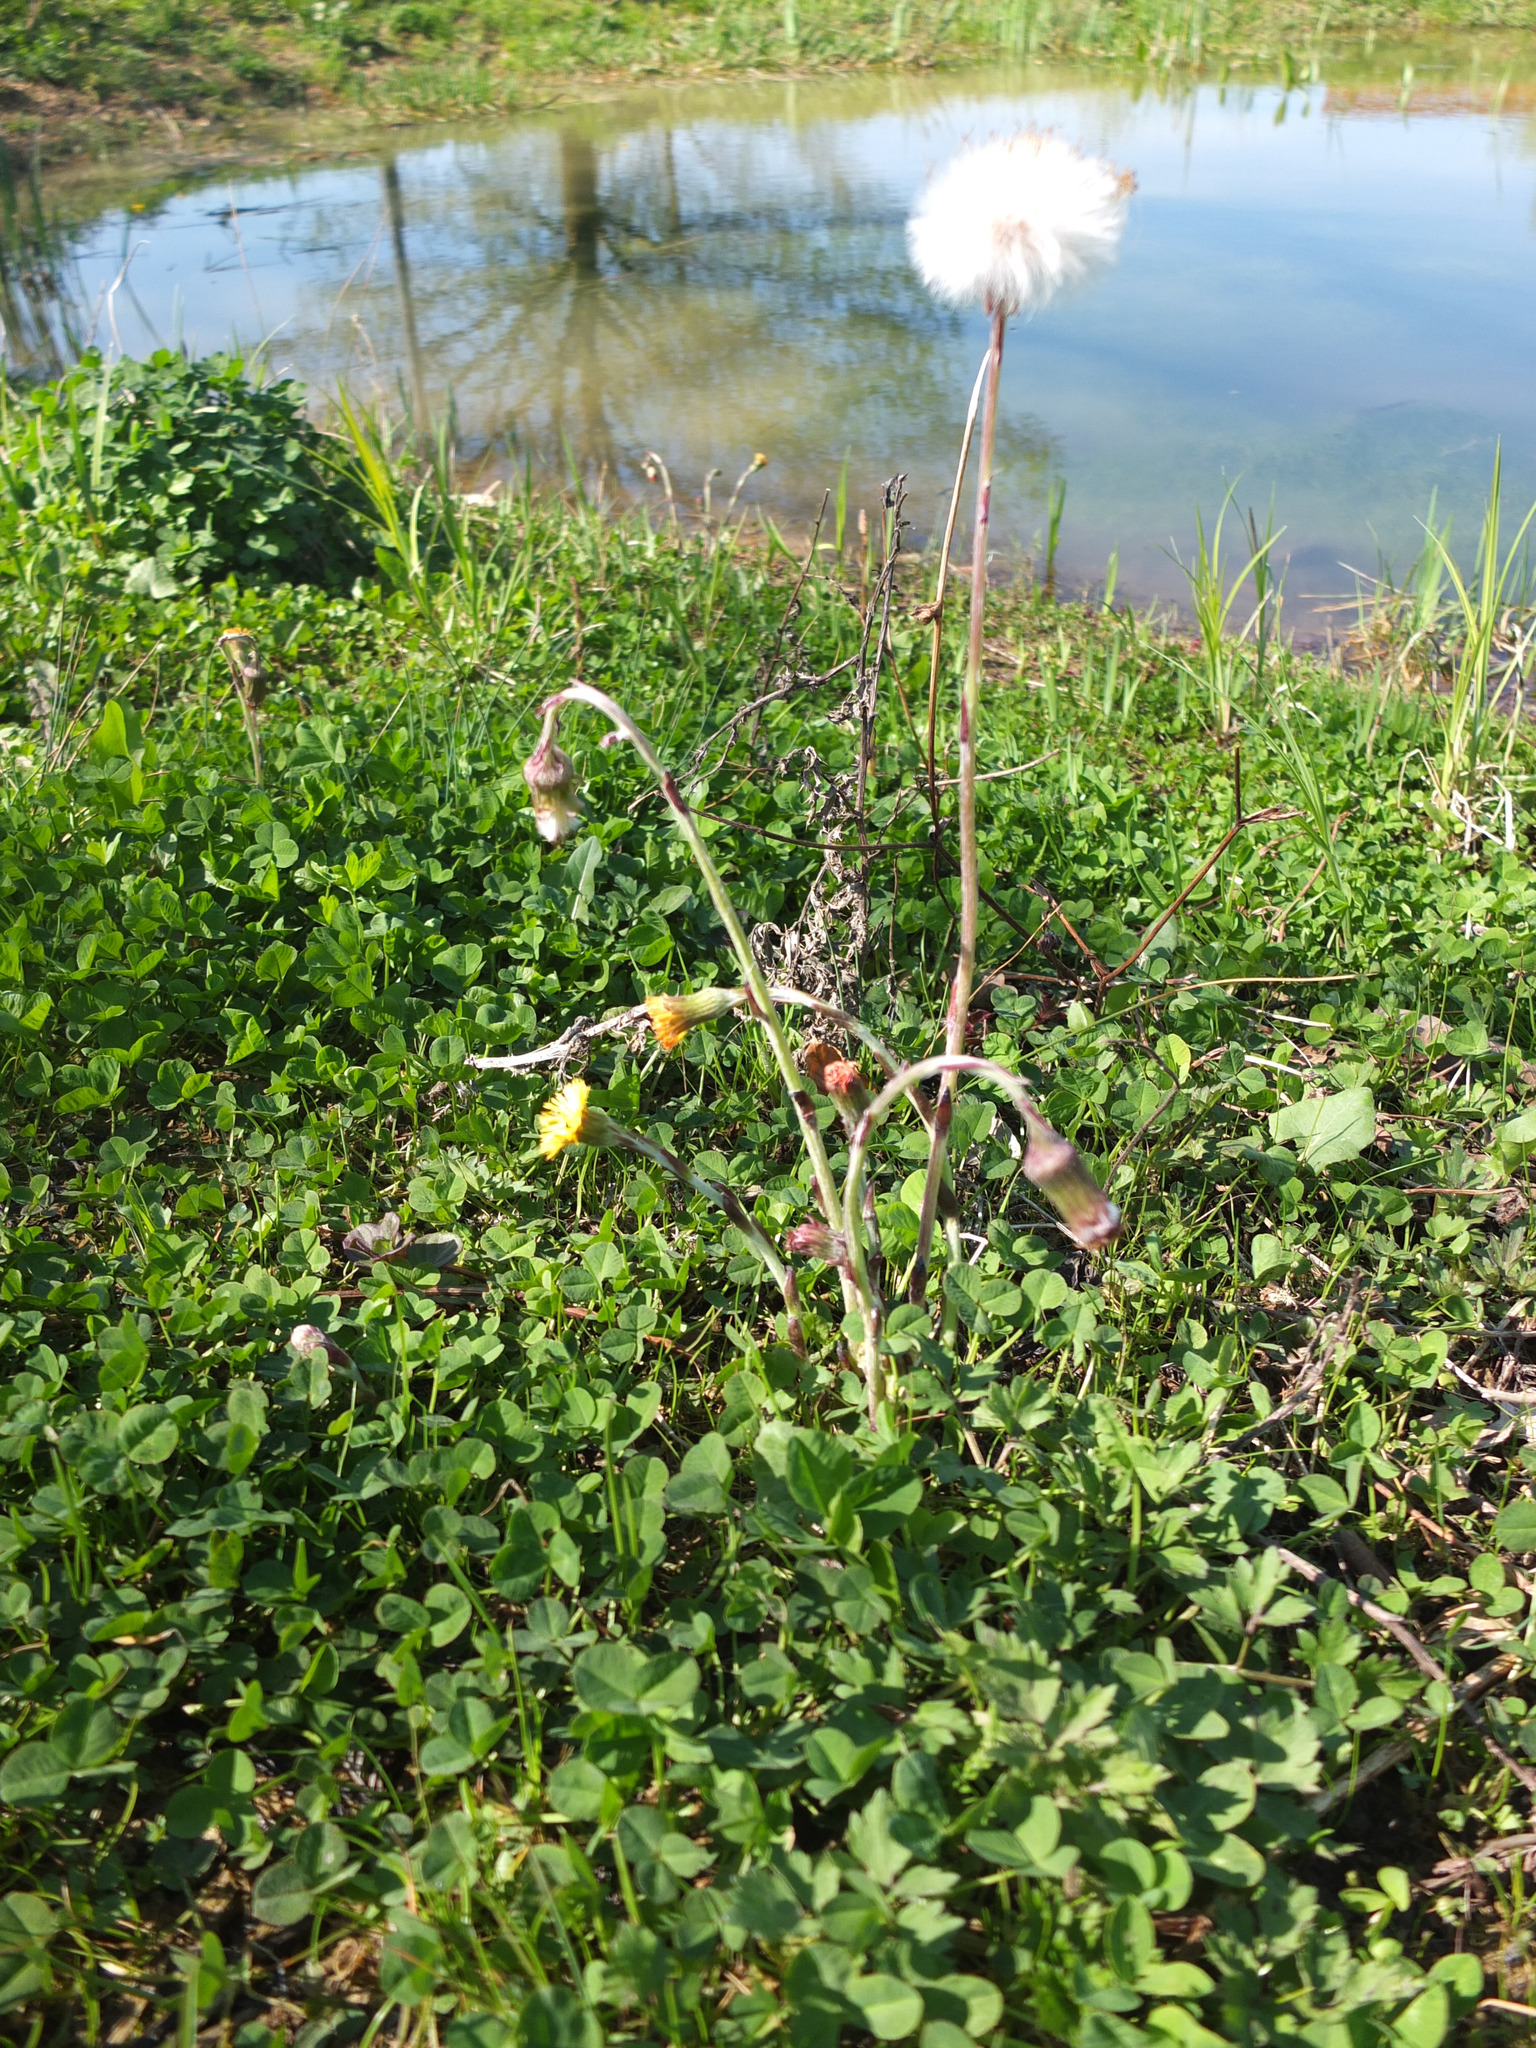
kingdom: Plantae
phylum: Tracheophyta
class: Magnoliopsida
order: Asterales
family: Asteraceae
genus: Tussilago
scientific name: Tussilago farfara
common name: Coltsfoot
